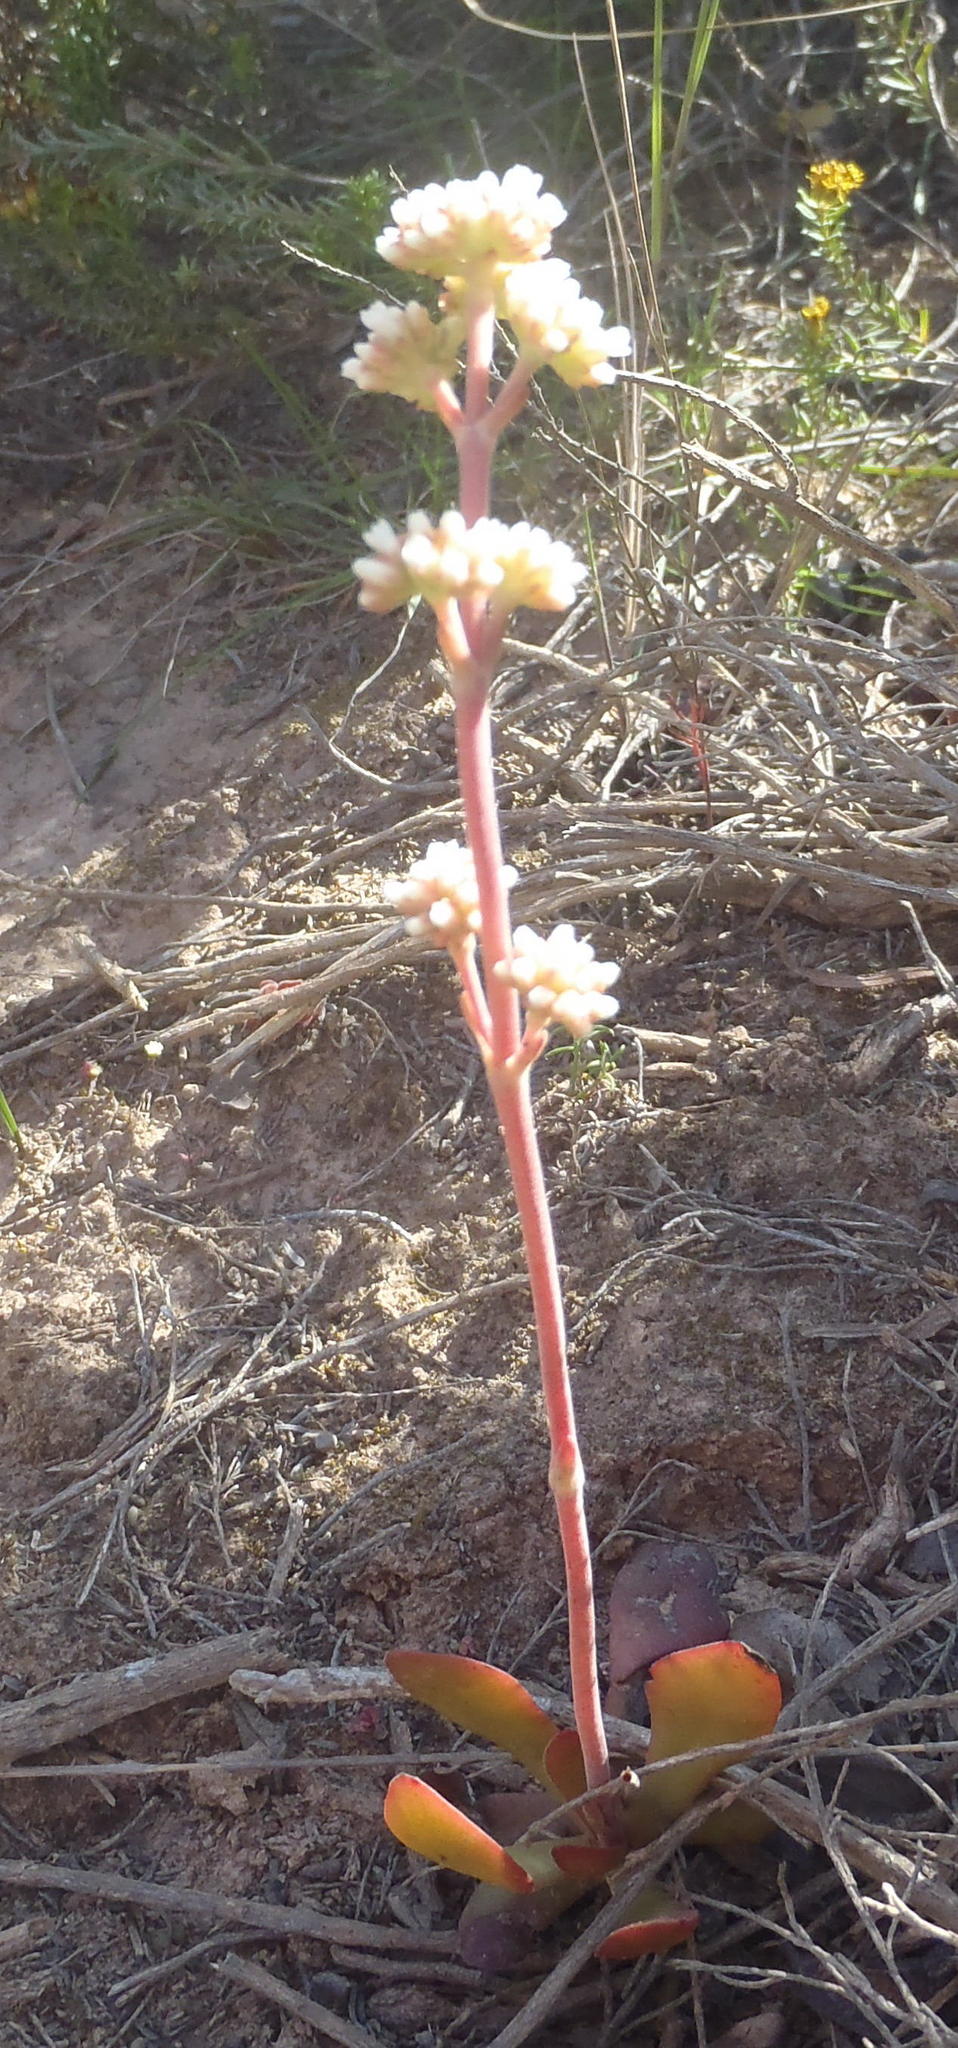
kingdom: Plantae
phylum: Tracheophyta
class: Magnoliopsida
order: Saxifragales
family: Crassulaceae
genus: Crassula
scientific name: Crassula nudicaulis
